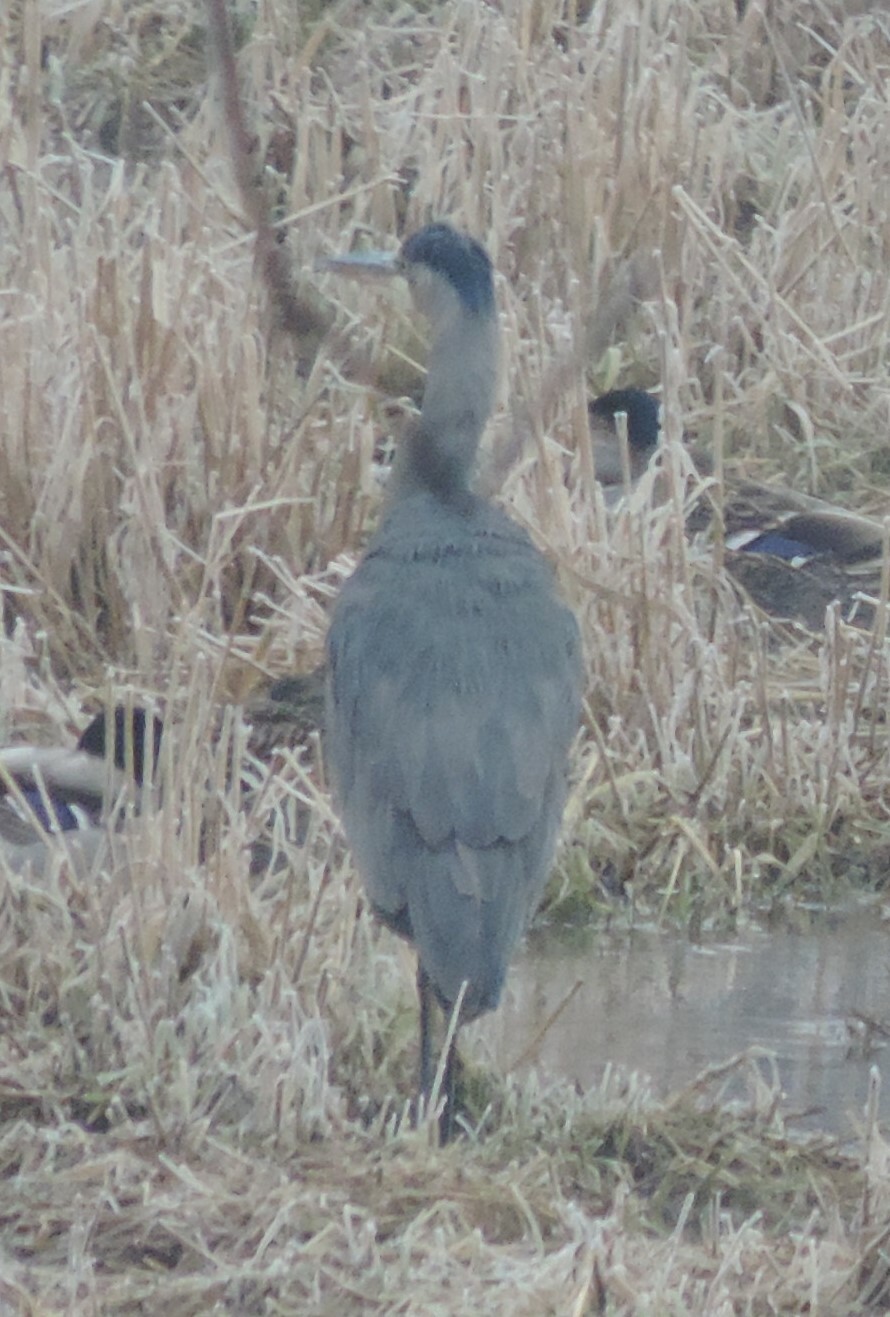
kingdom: Animalia
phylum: Chordata
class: Aves
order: Pelecaniformes
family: Ardeidae
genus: Ardea
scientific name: Ardea herodias
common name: Great blue heron
